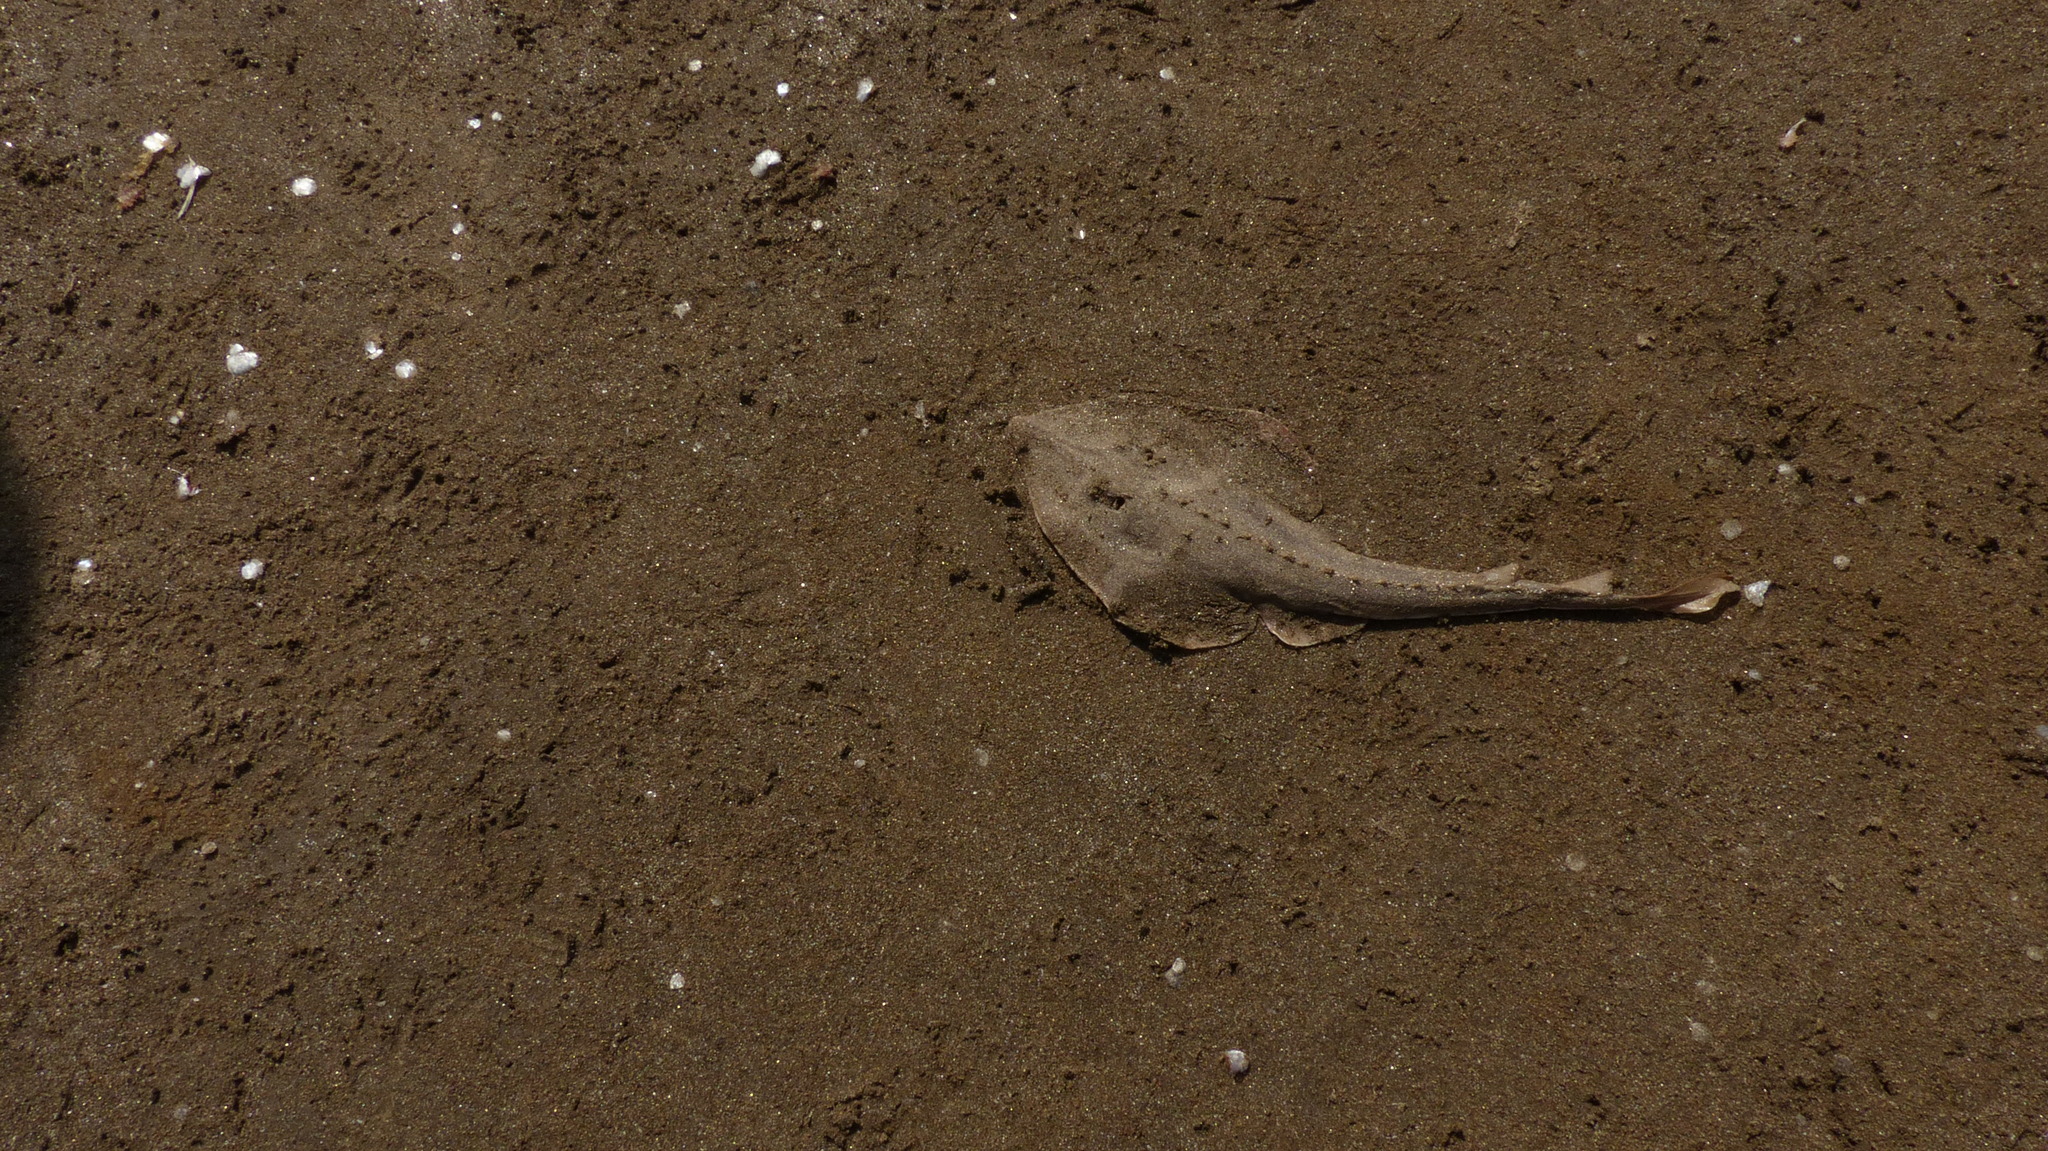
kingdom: Animalia
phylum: Chordata
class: Elasmobranchii
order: Rhinopristiformes
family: Glaucostegidae
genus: Glaucostegus
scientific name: Glaucostegus obtusus
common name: Widenose guitarfish
